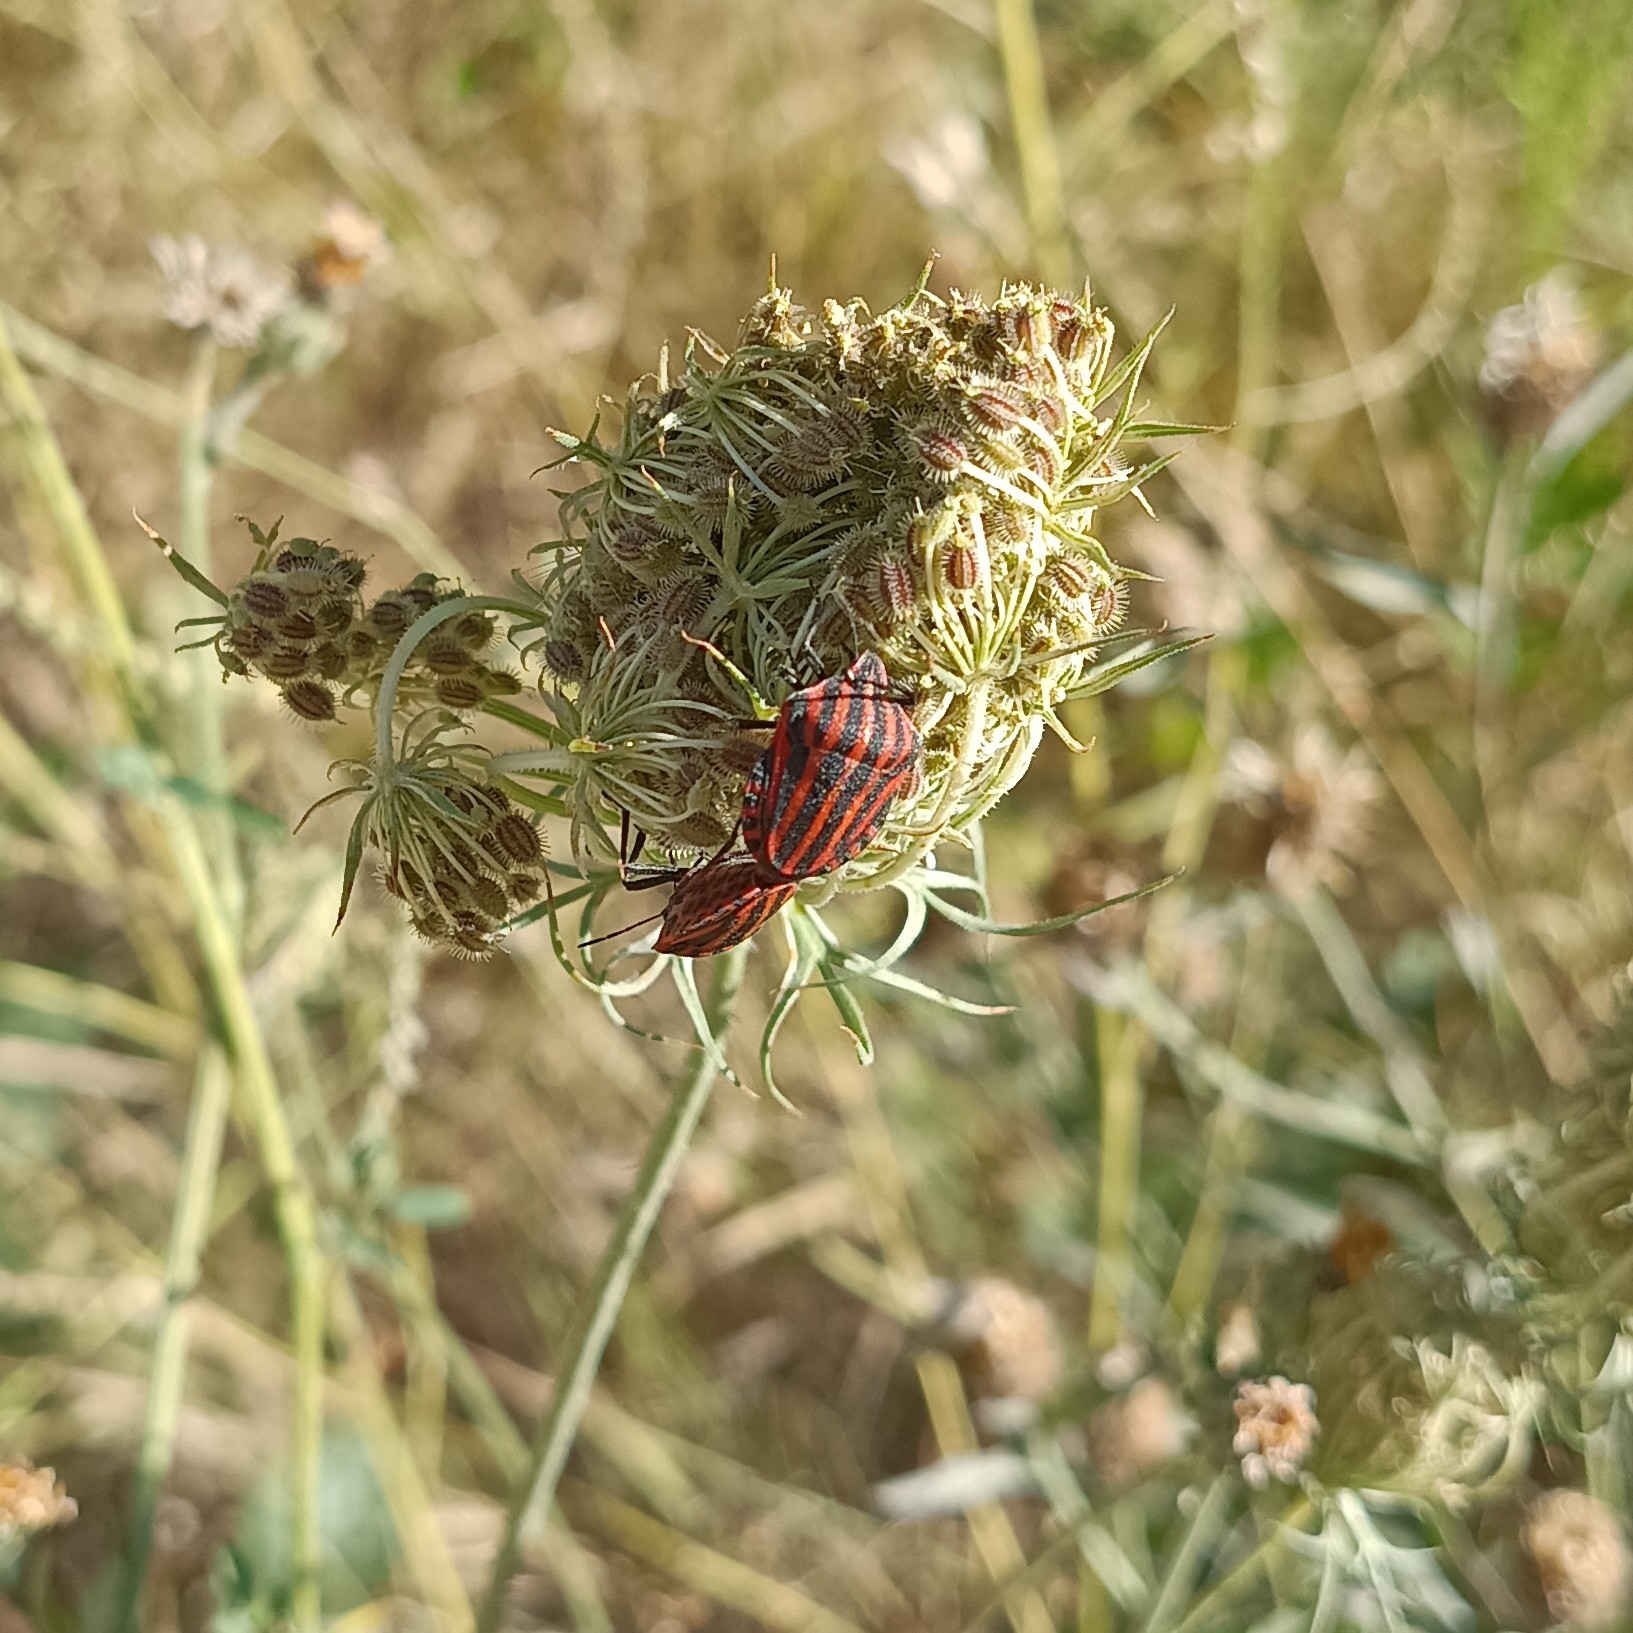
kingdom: Animalia
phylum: Arthropoda
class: Insecta
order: Hemiptera
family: Pentatomidae
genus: Graphosoma
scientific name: Graphosoma italicum
